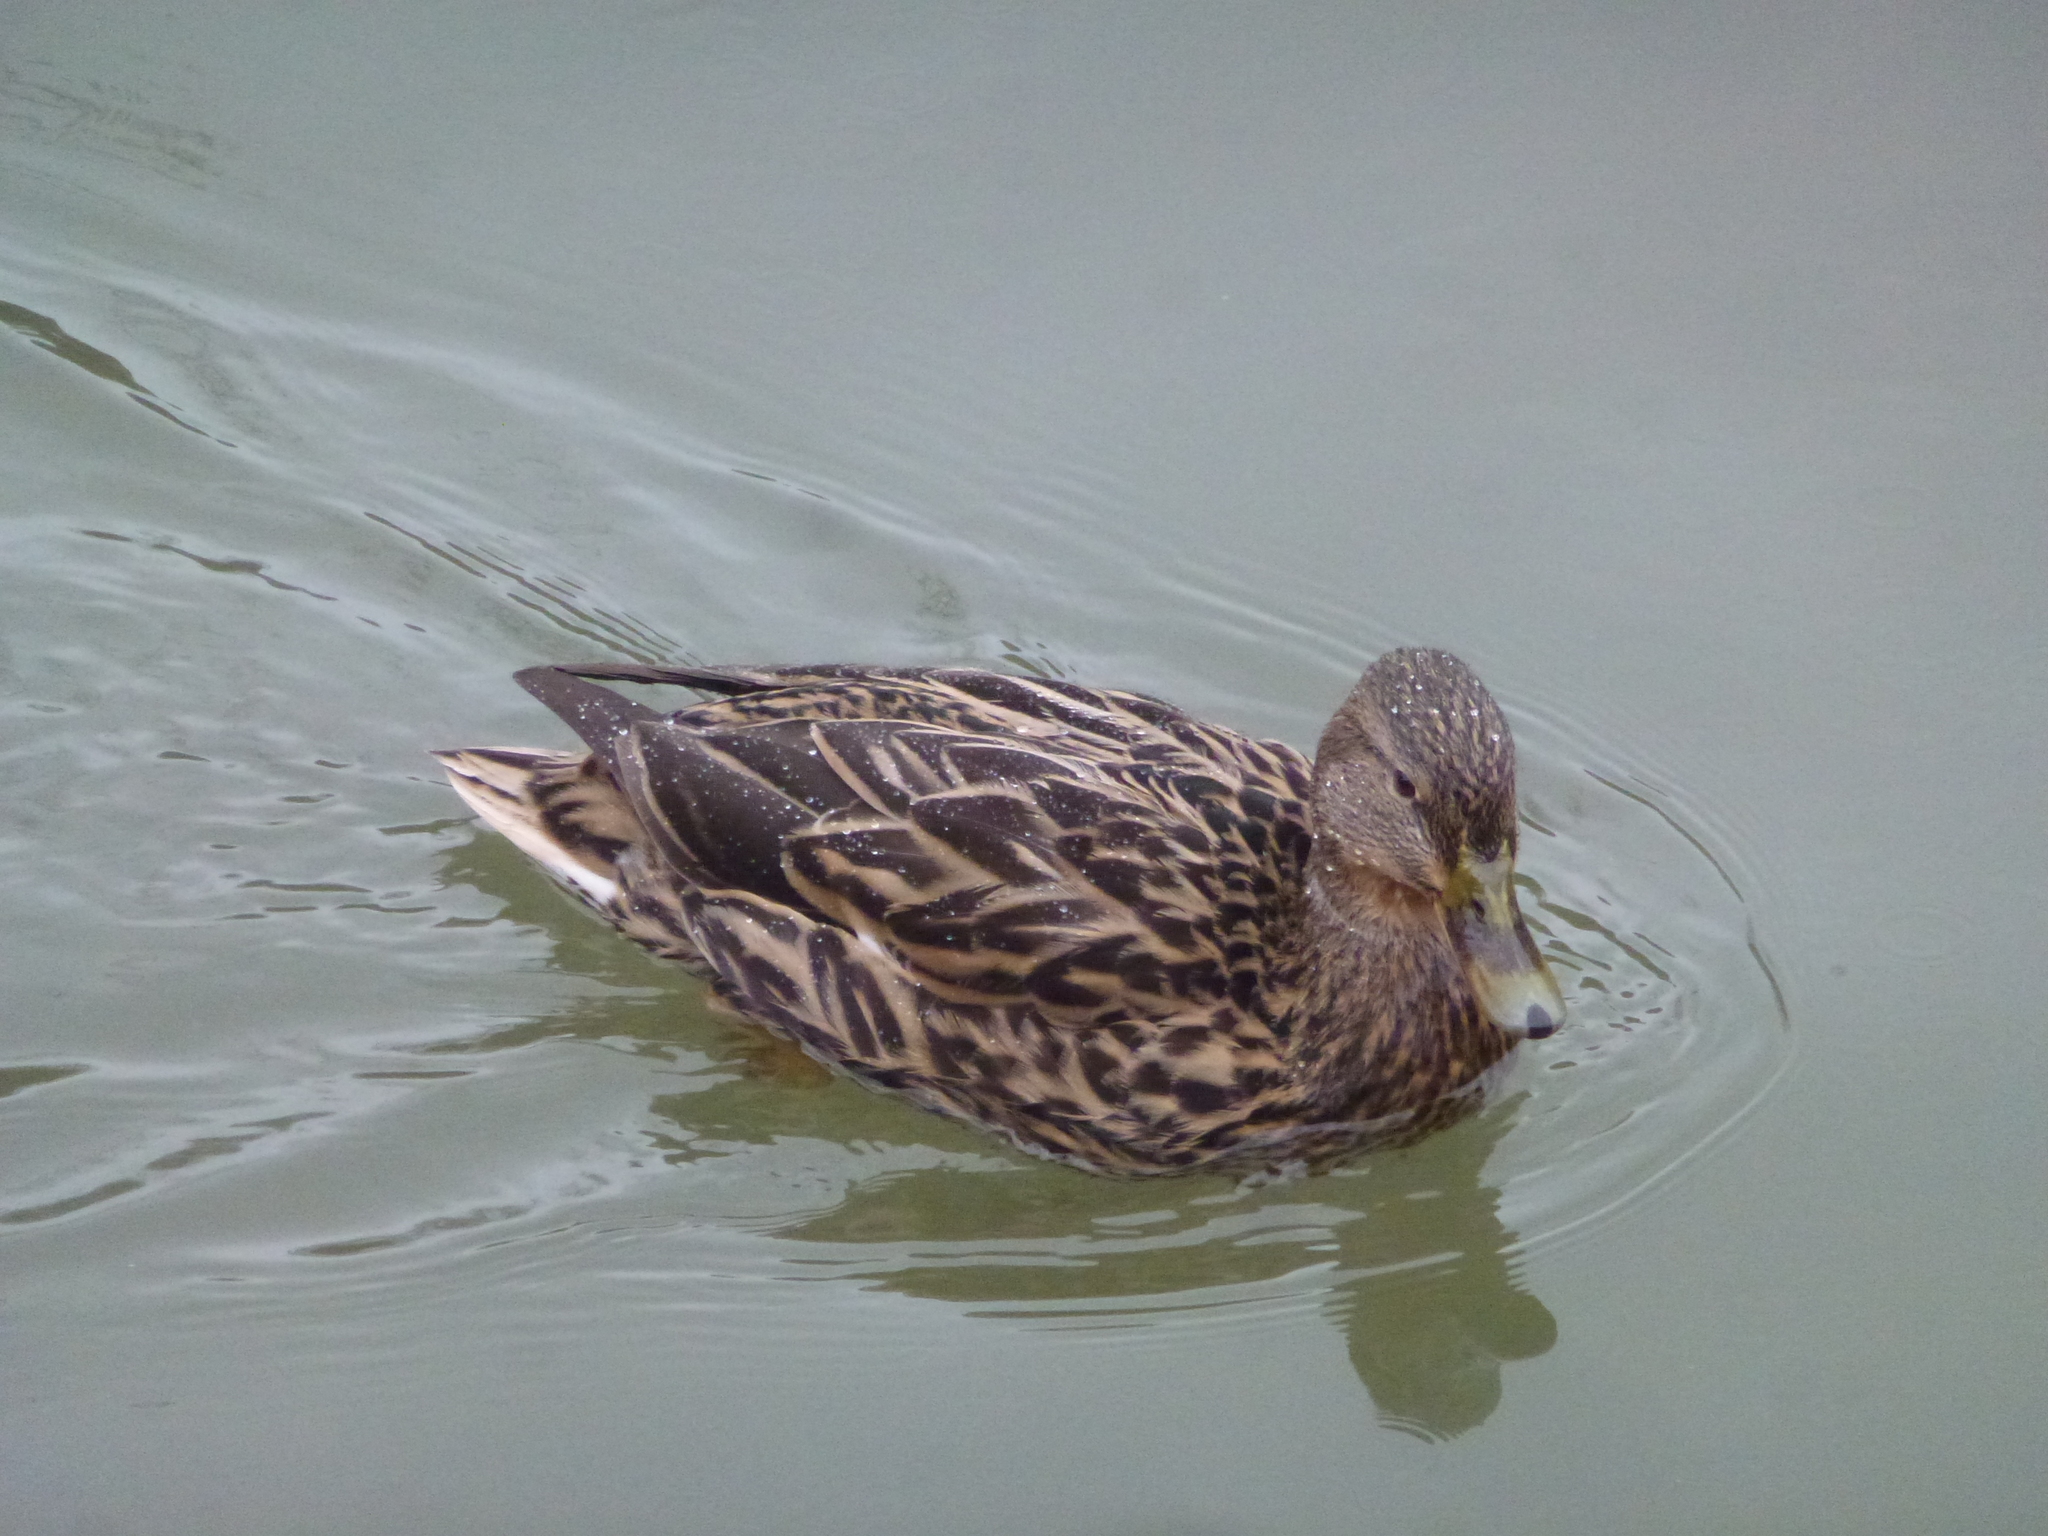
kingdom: Animalia
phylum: Chordata
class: Aves
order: Anseriformes
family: Anatidae
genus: Anas
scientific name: Anas platyrhynchos
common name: Mallard
